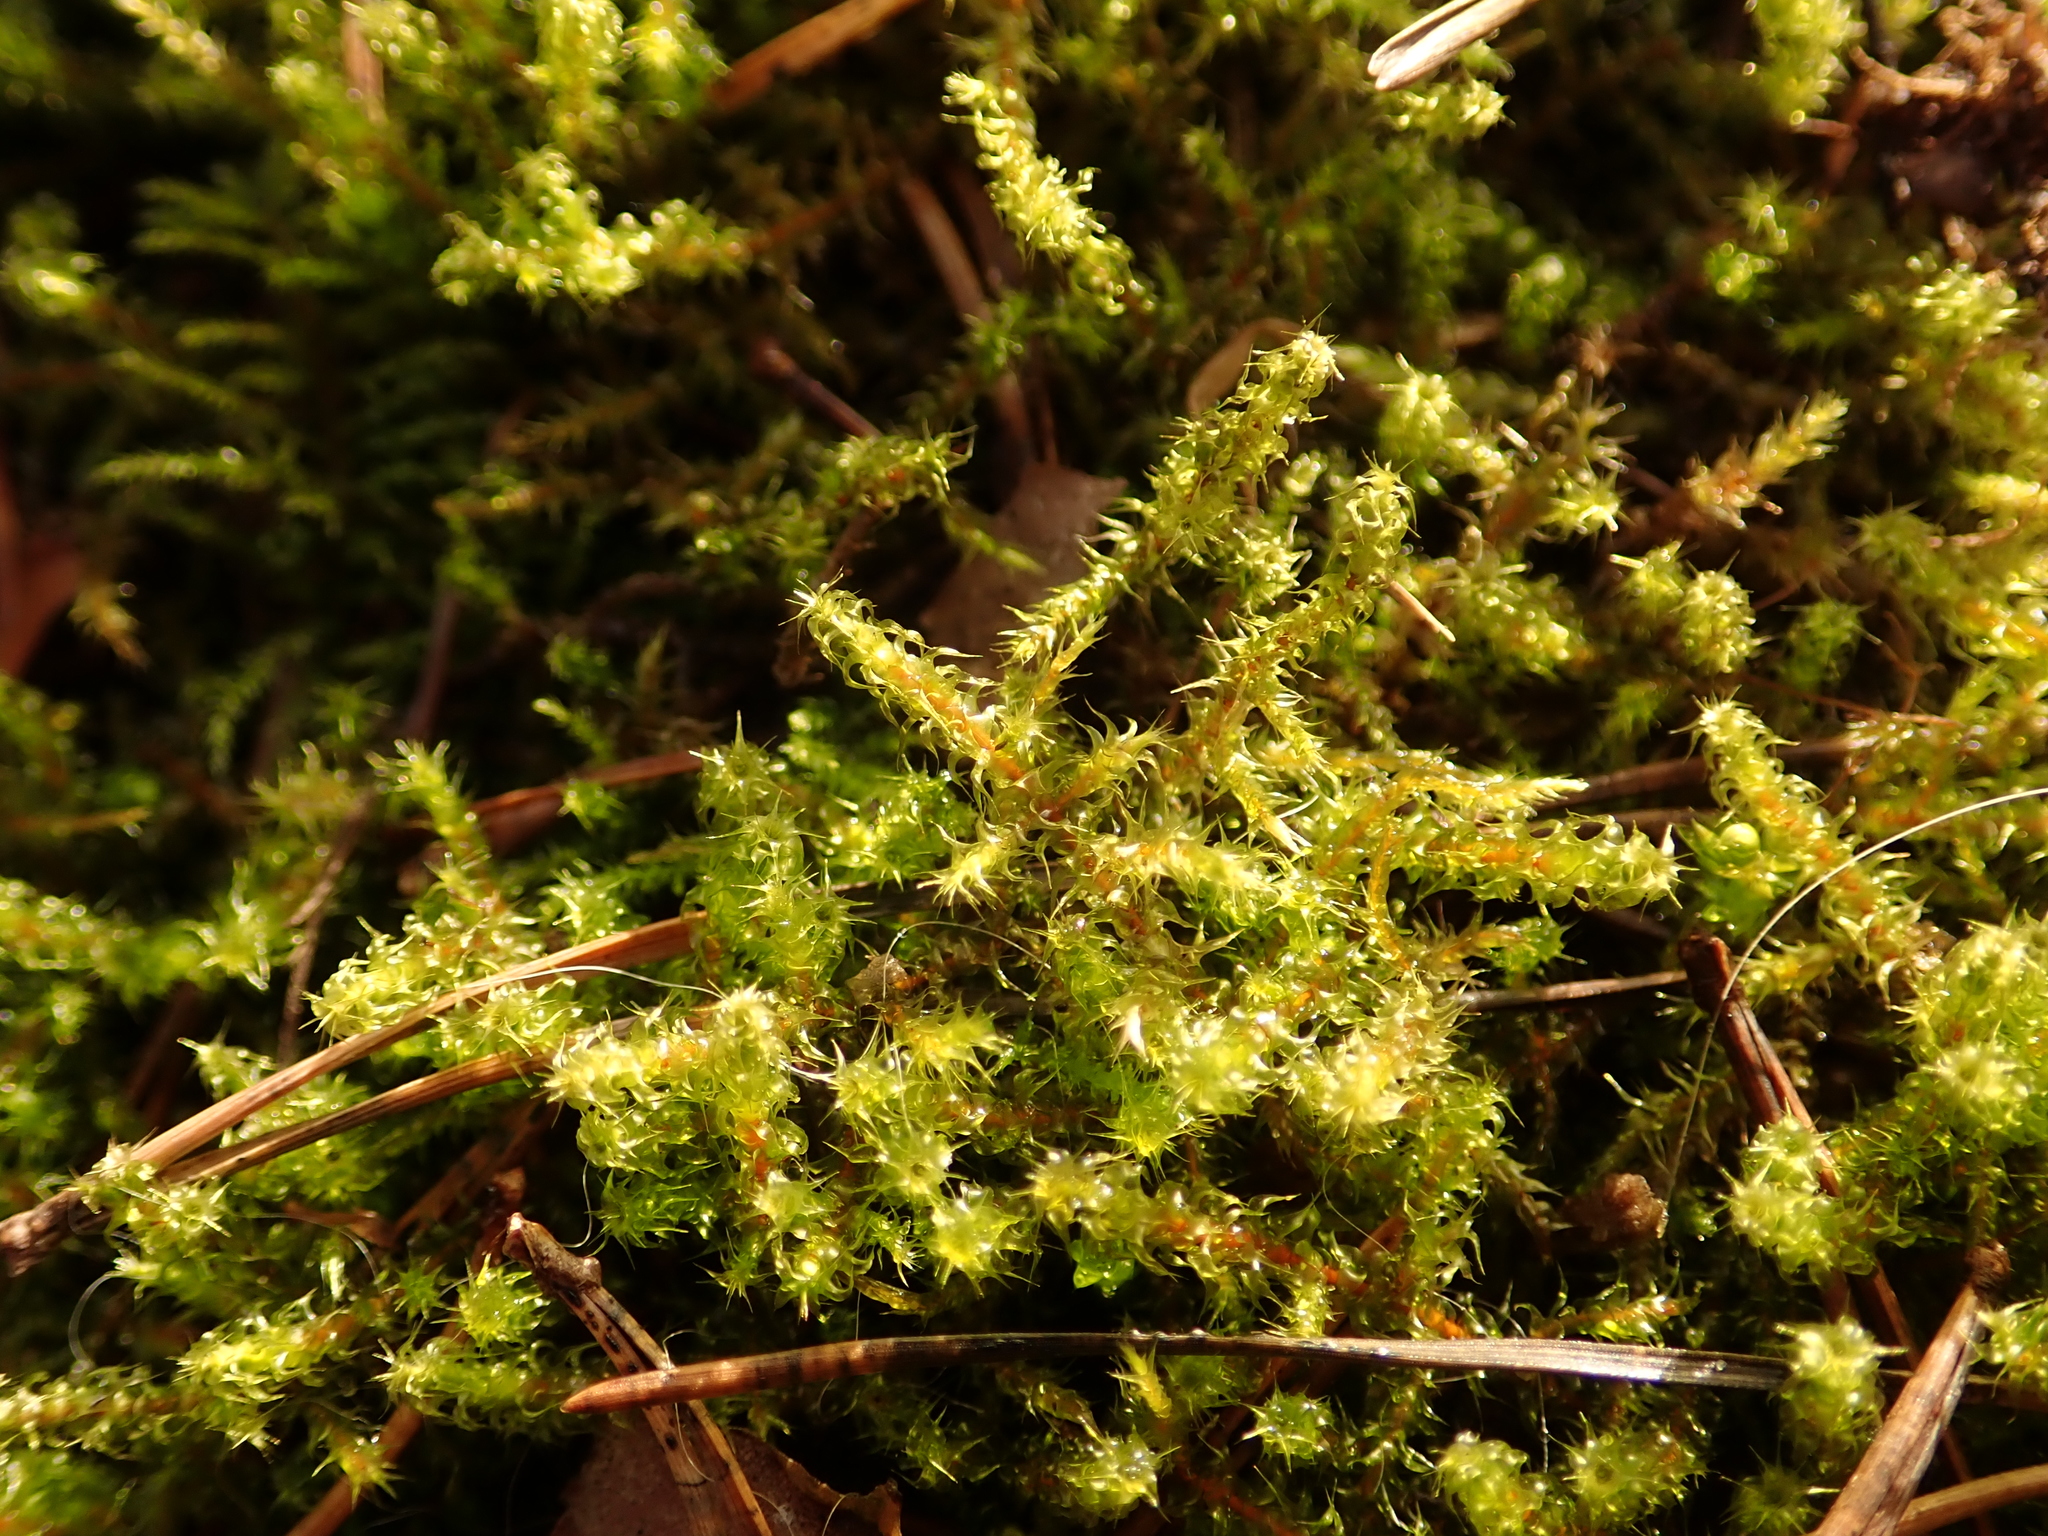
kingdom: Plantae
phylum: Bryophyta
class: Bryopsida
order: Hypnales
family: Hylocomiaceae
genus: Rhytidiadelphus
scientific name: Rhytidiadelphus squarrosus
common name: Springy turf-moss
